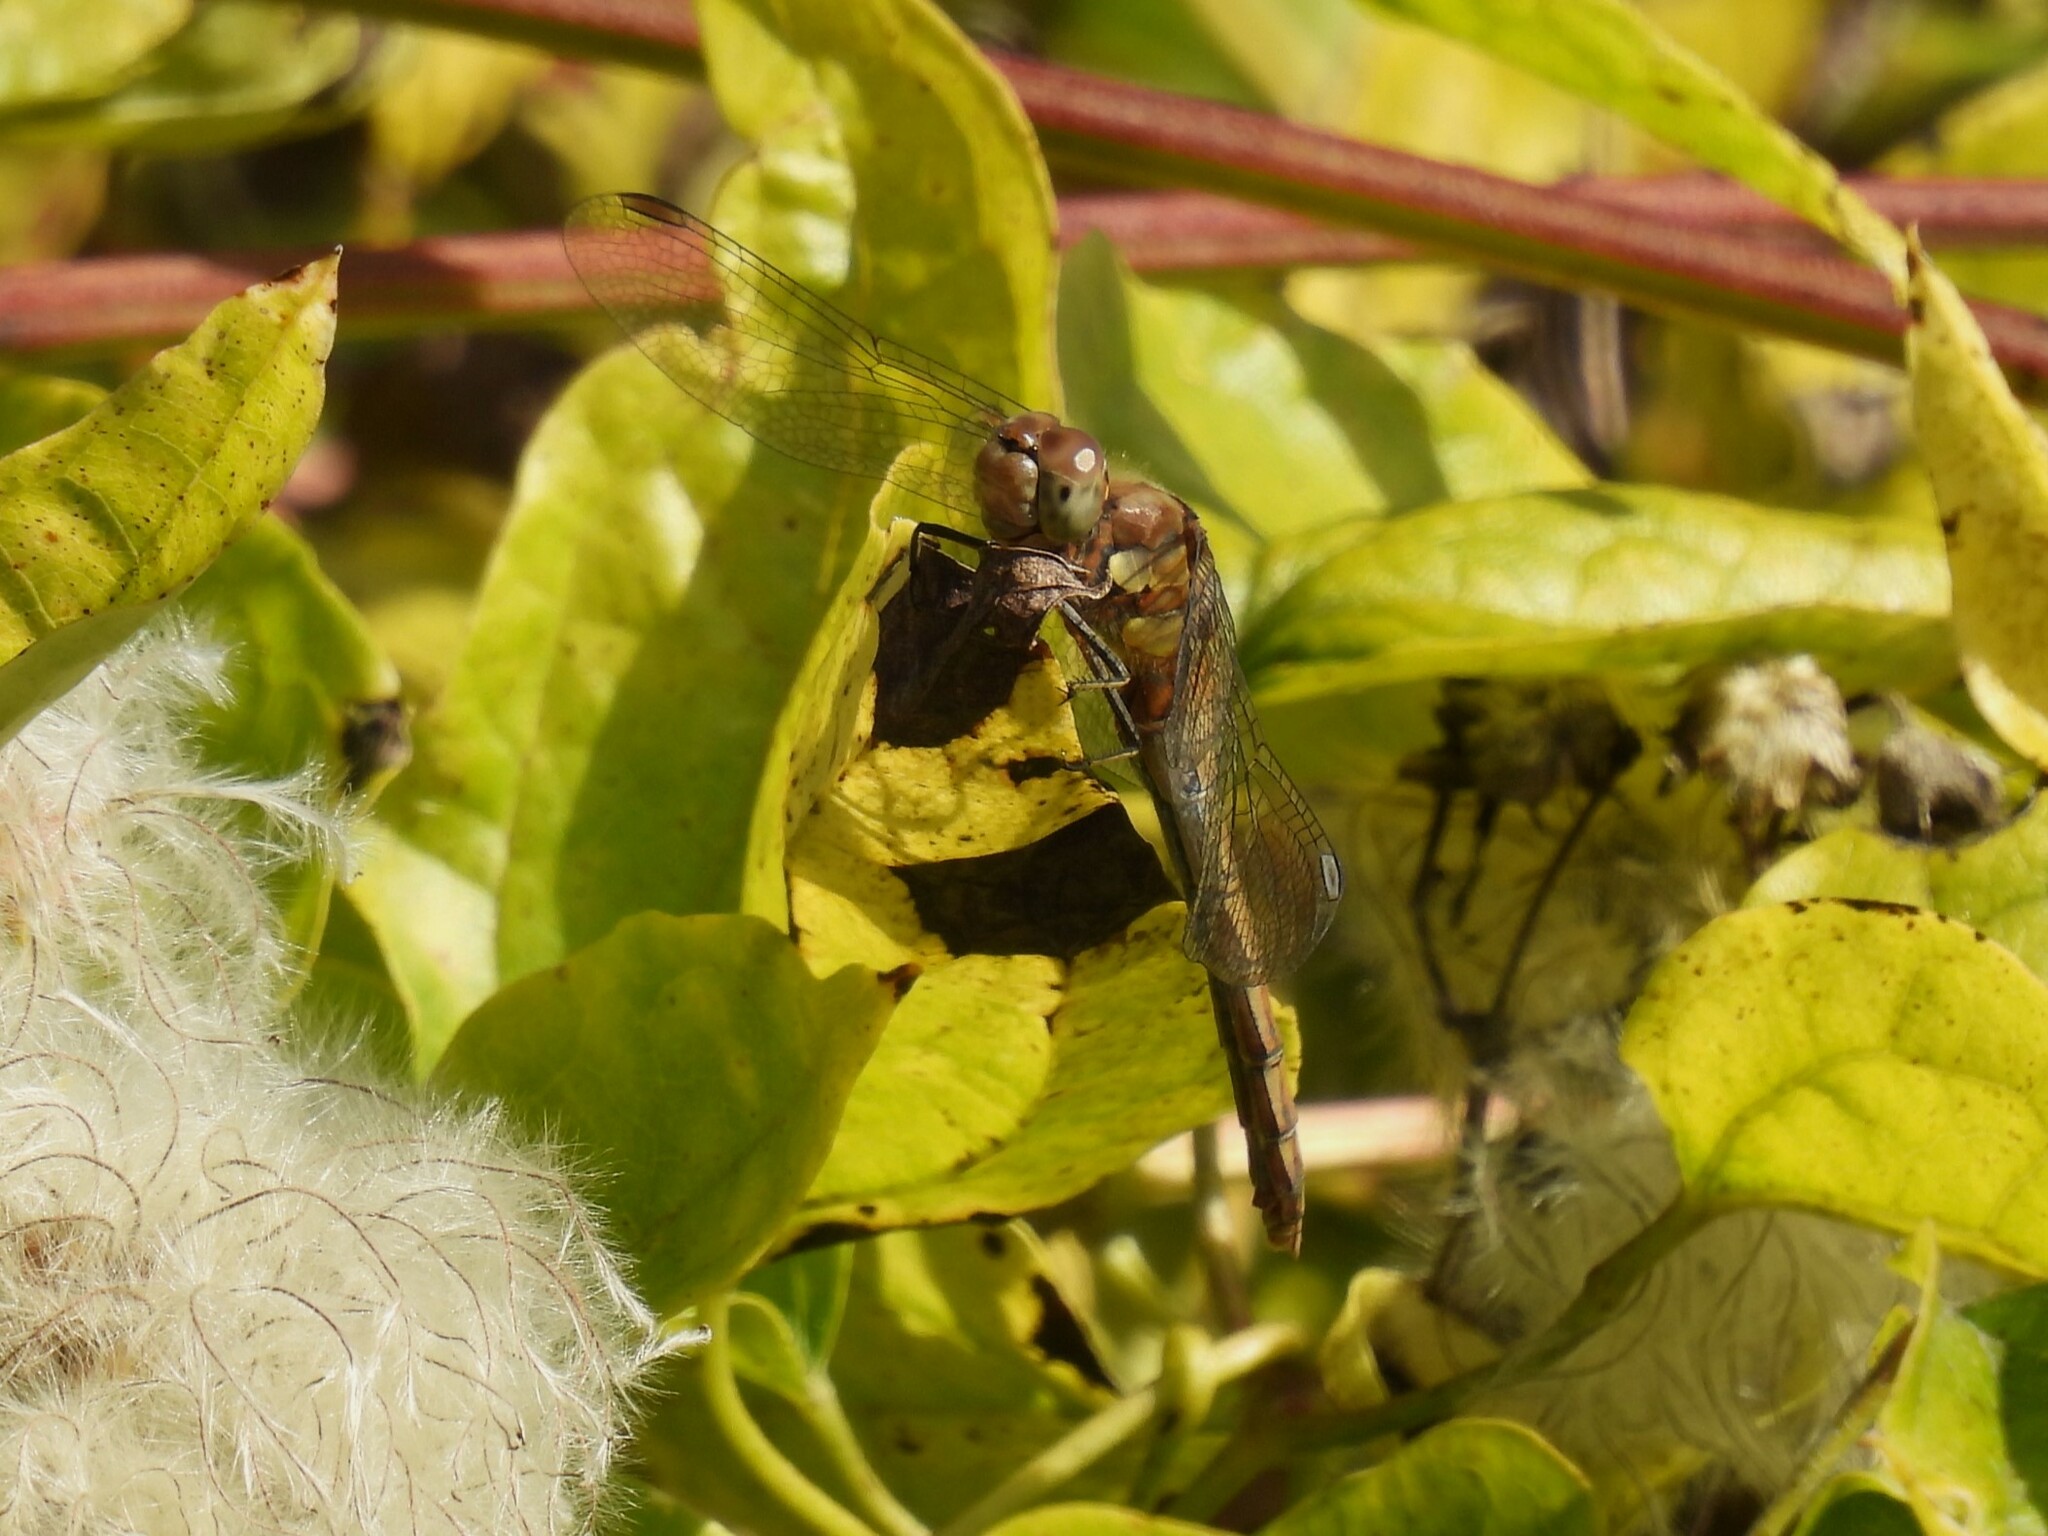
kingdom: Animalia
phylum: Arthropoda
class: Insecta
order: Odonata
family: Libellulidae
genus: Sympetrum
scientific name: Sympetrum striolatum
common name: Common darter
